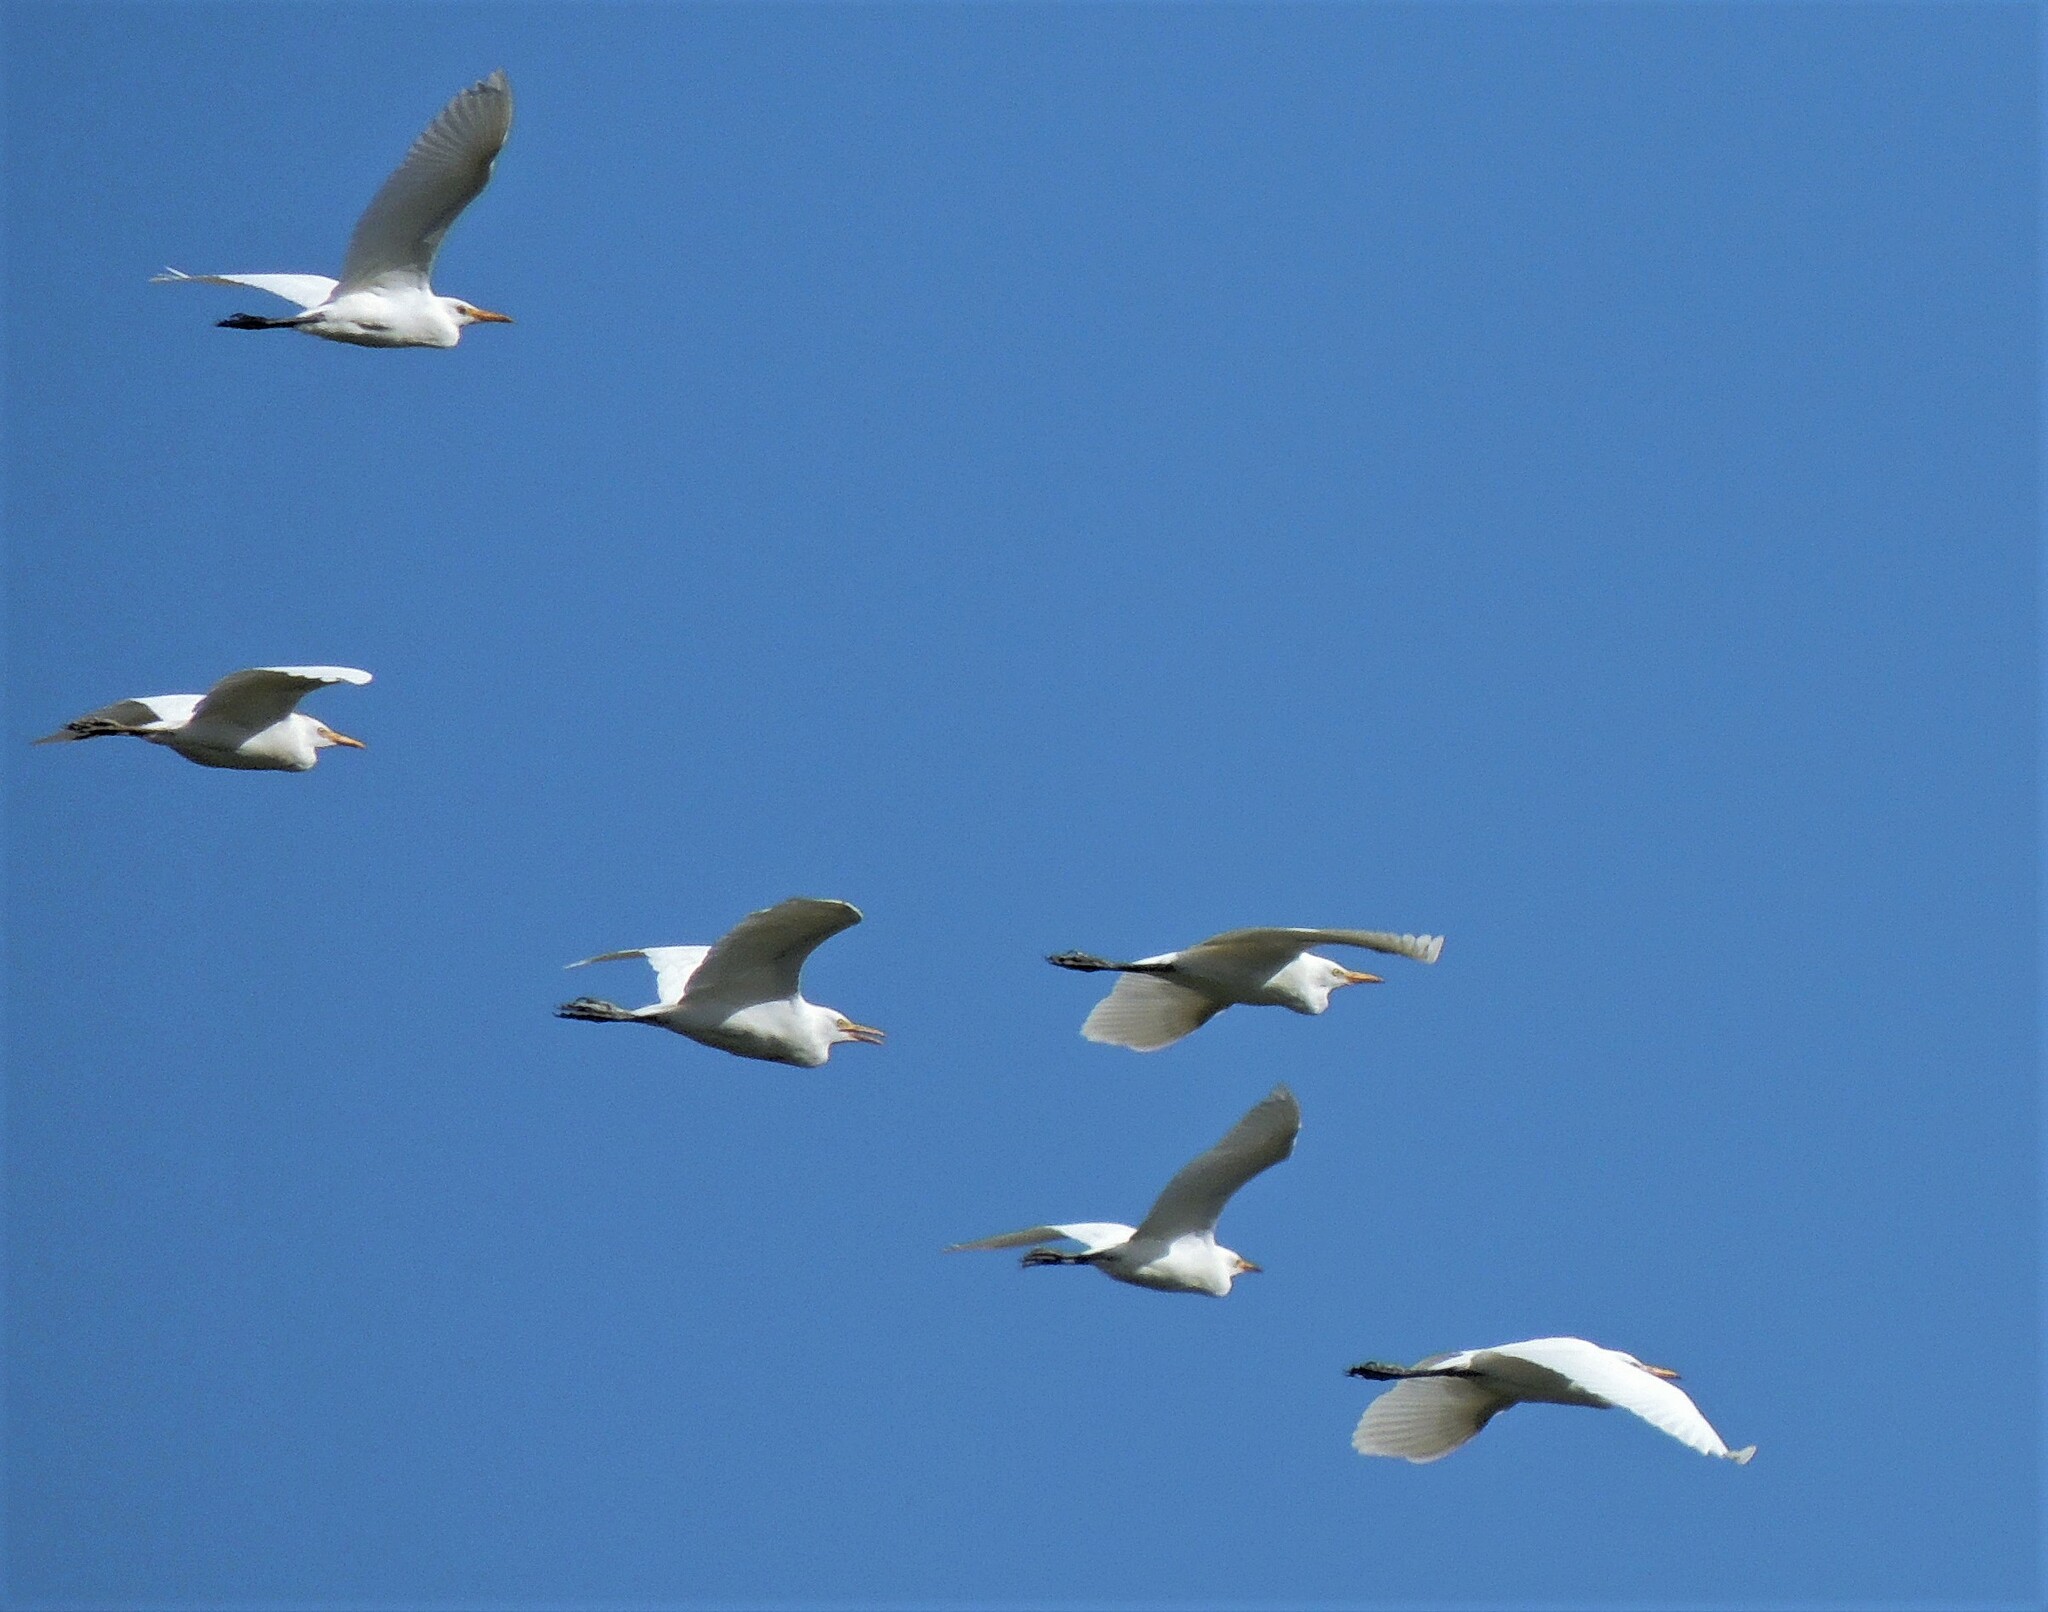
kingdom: Animalia
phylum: Chordata
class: Aves
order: Pelecaniformes
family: Ardeidae
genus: Bubulcus
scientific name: Bubulcus ibis
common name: Cattle egret
